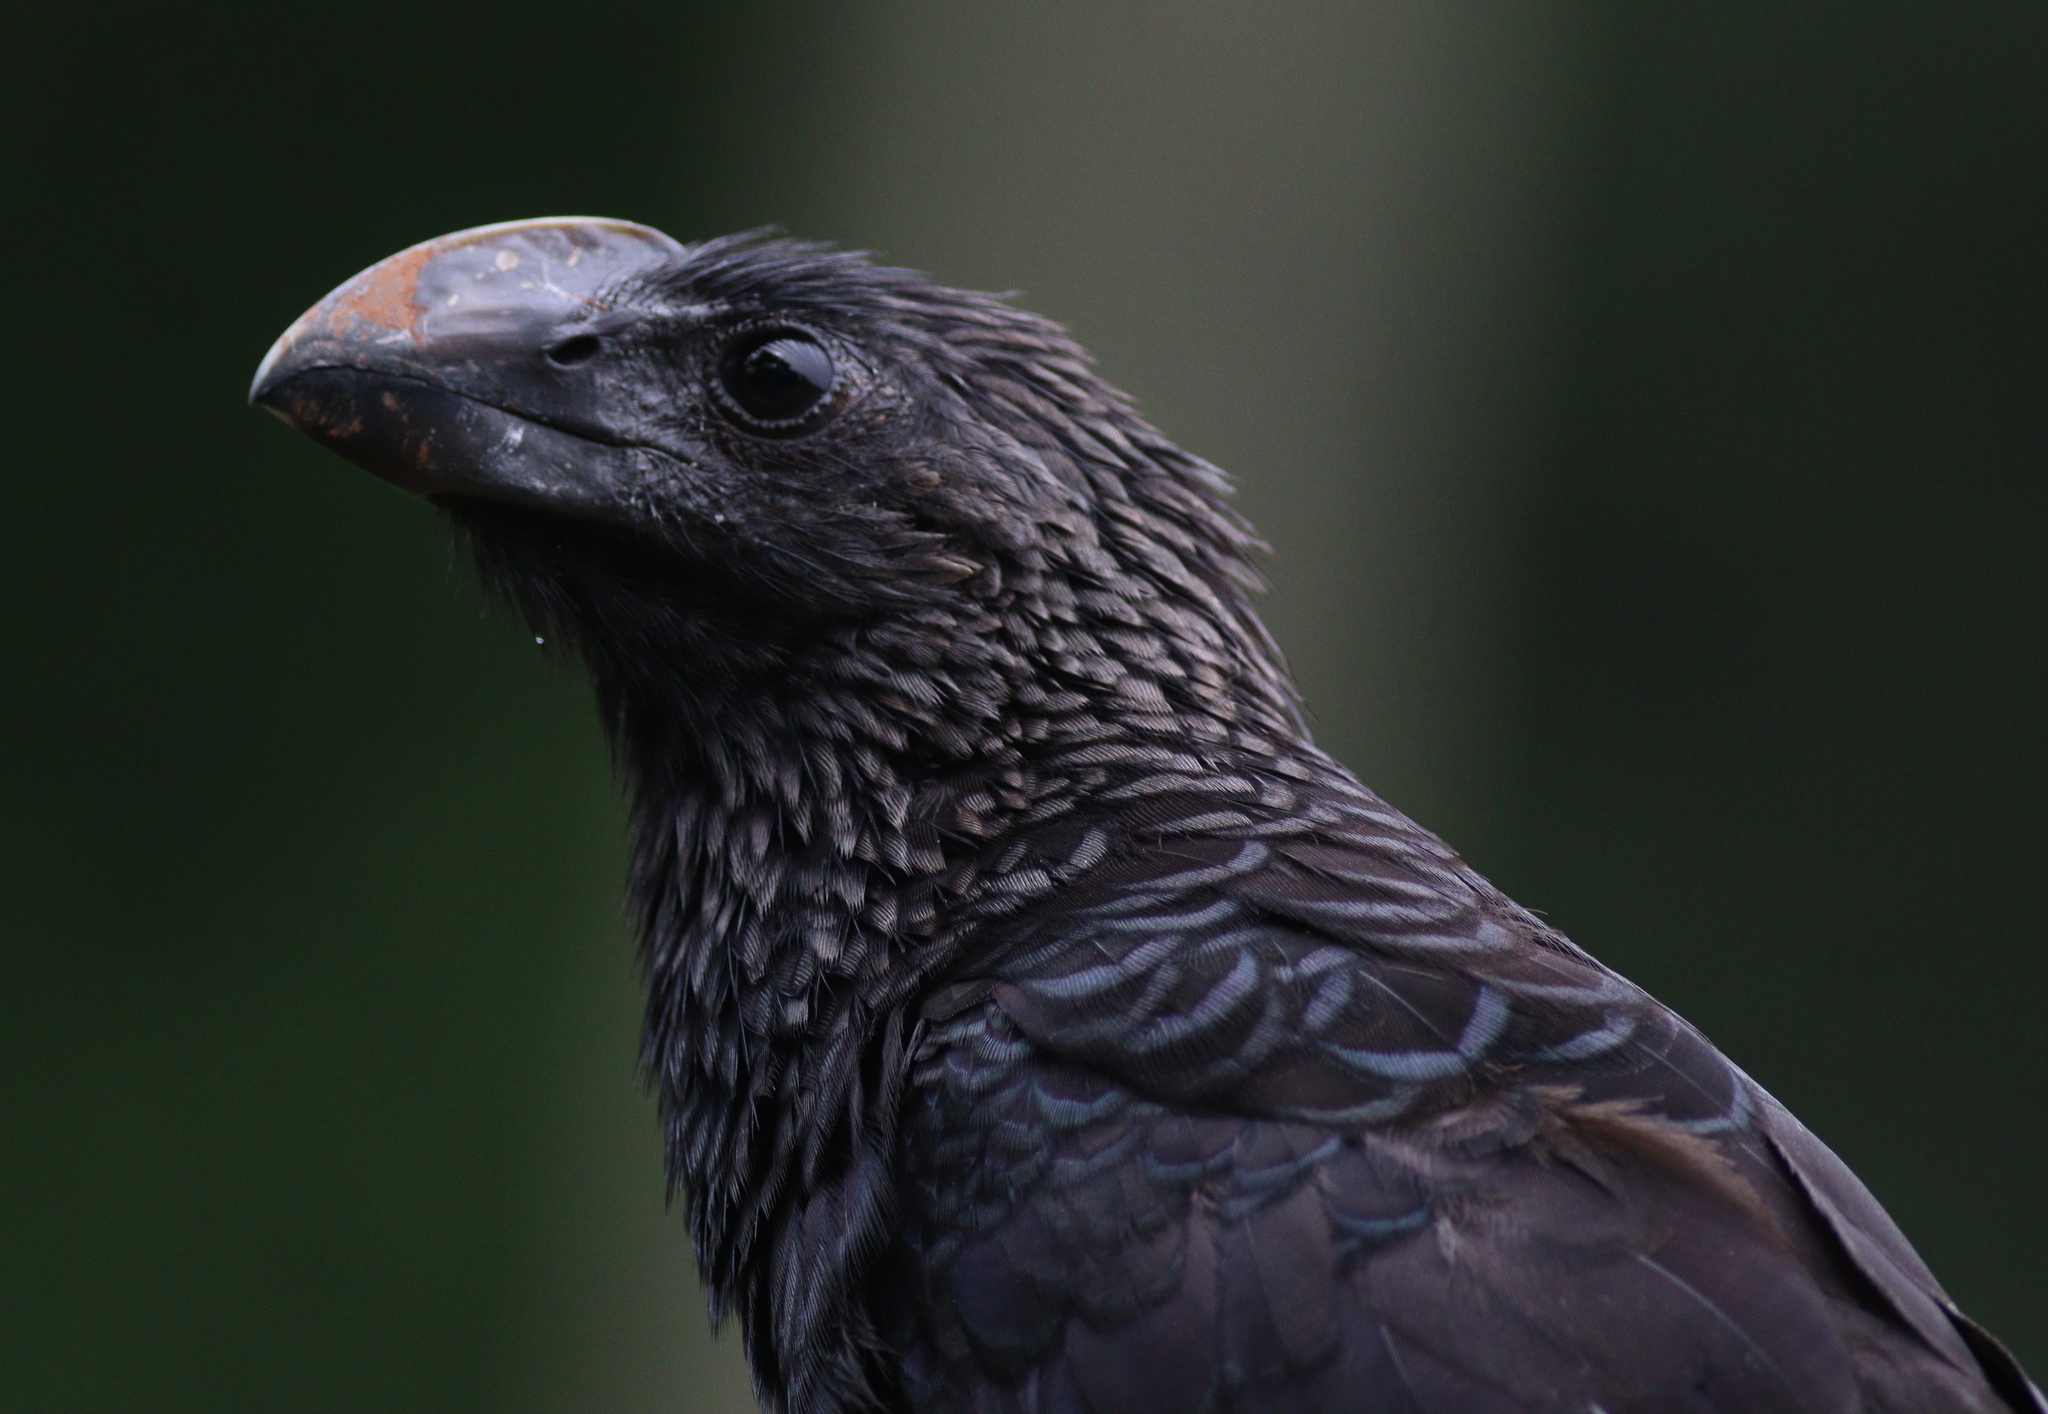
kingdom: Animalia
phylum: Chordata
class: Aves
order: Cuculiformes
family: Cuculidae
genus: Crotophaga
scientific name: Crotophaga ani
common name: Smooth-billed ani
